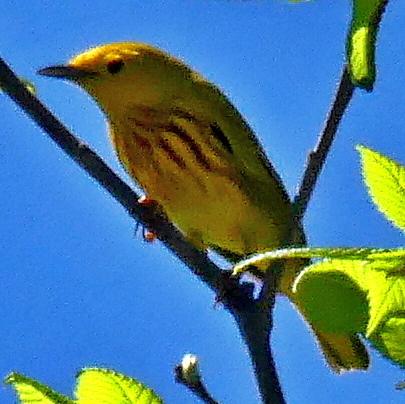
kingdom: Animalia
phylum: Chordata
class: Aves
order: Passeriformes
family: Parulidae
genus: Setophaga
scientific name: Setophaga petechia
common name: Yellow warbler
